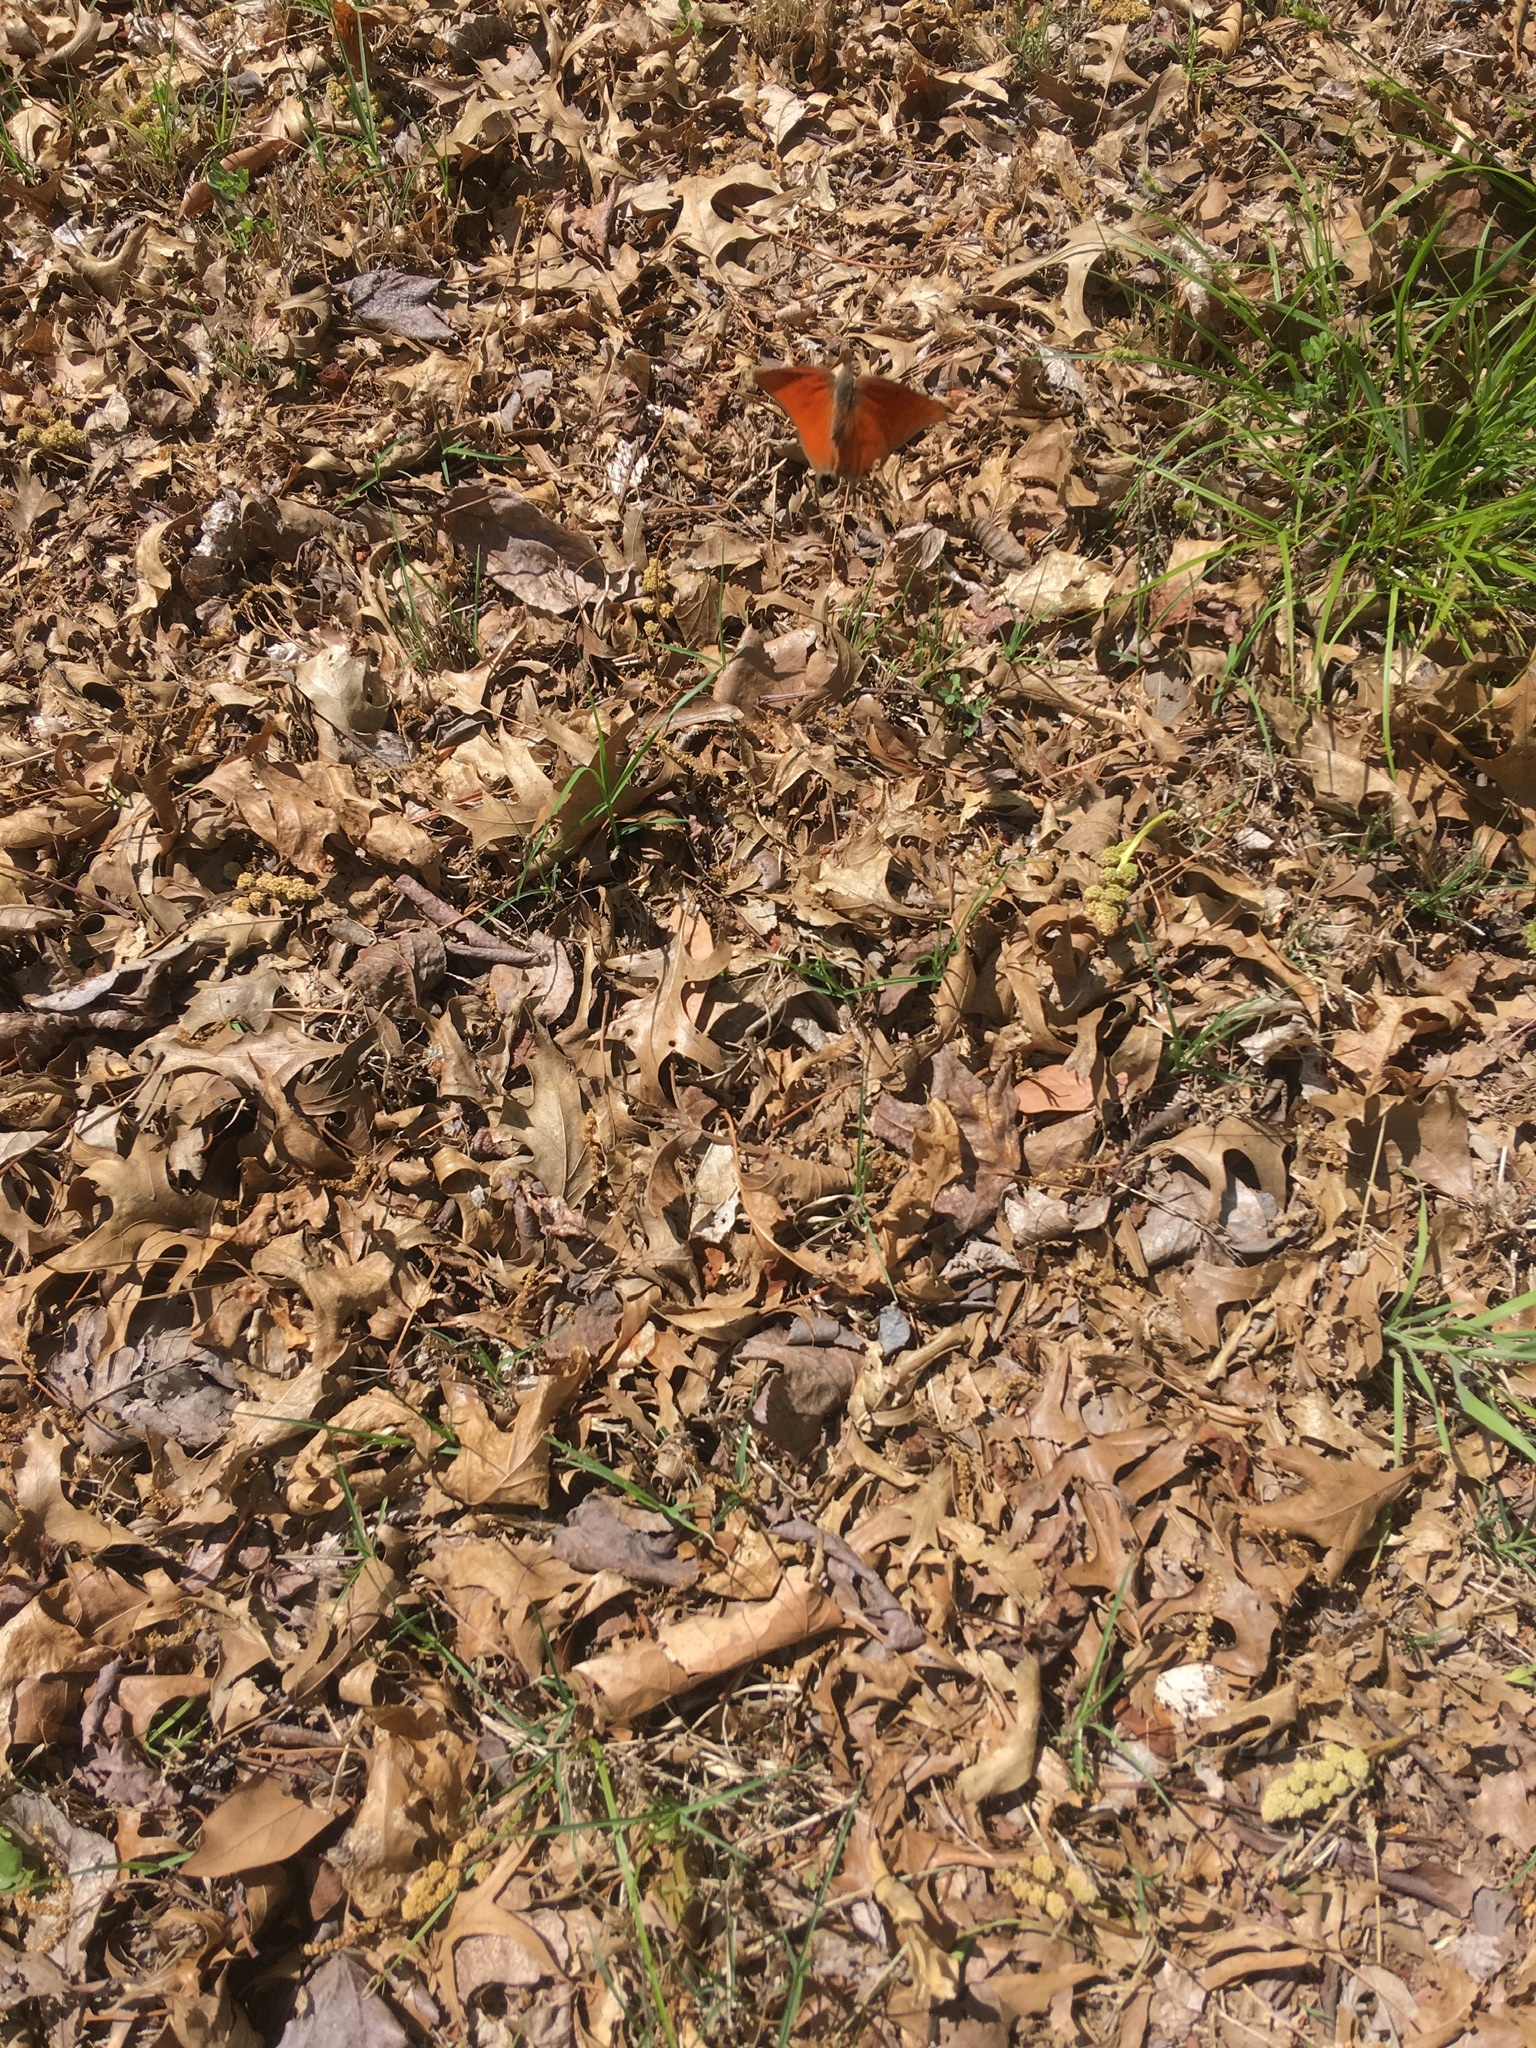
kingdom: Animalia
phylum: Arthropoda
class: Insecta
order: Lepidoptera
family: Nymphalidae
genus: Anaea
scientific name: Anaea andria
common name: Goatweed leafwing
